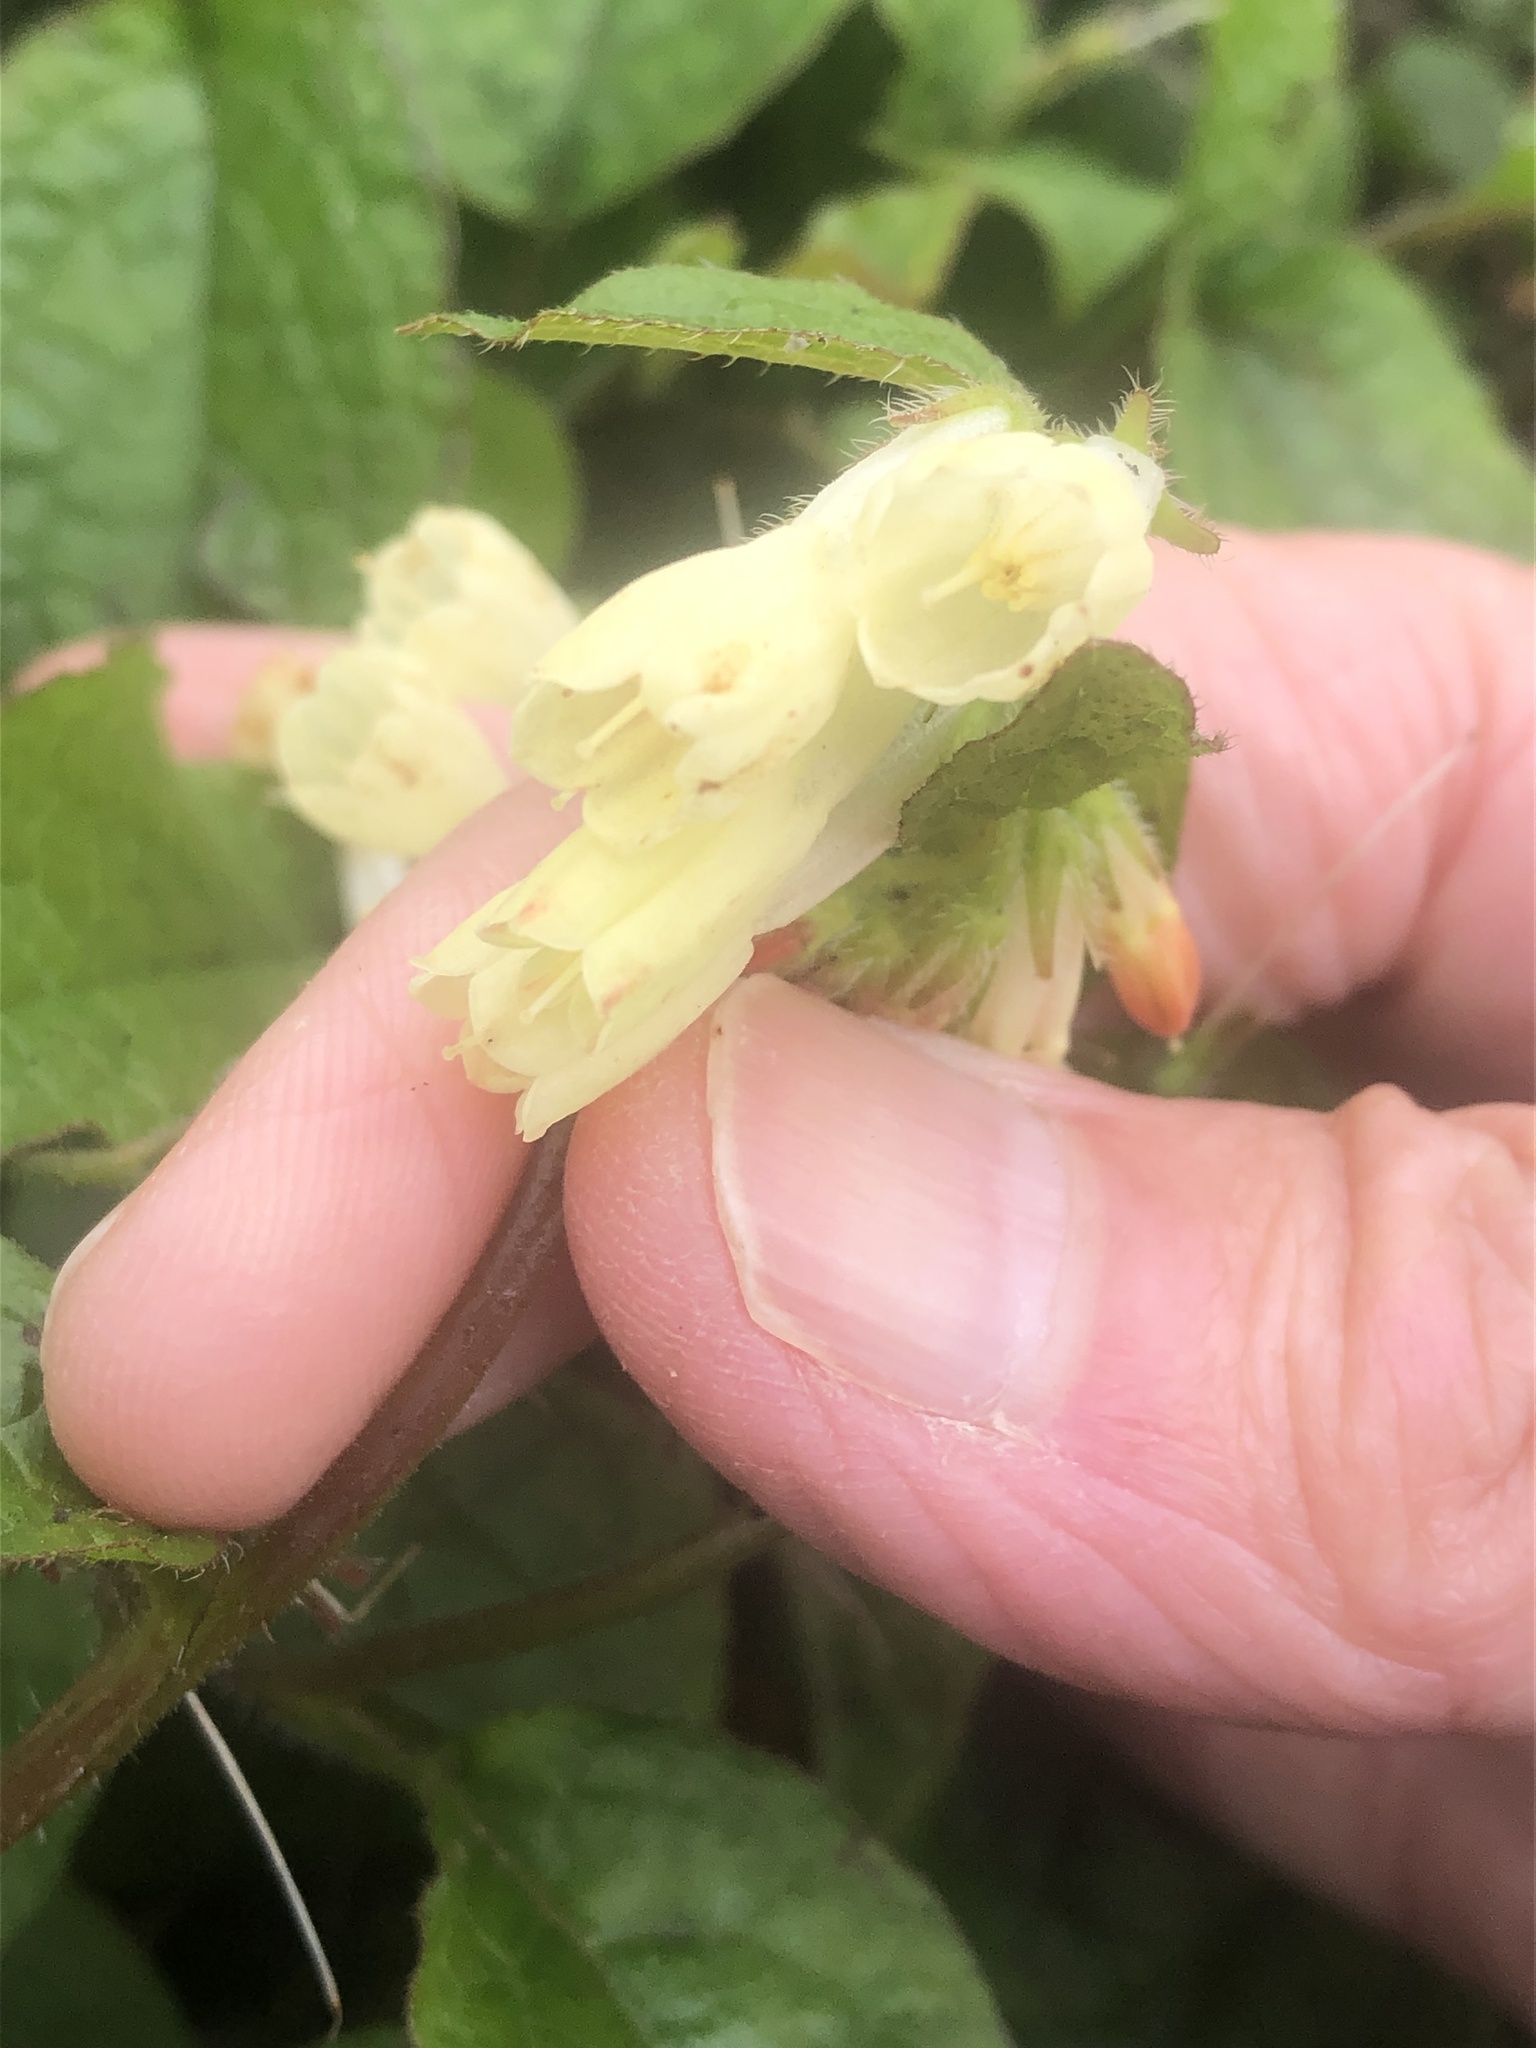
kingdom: Plantae
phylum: Tracheophyta
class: Magnoliopsida
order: Boraginales
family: Boraginaceae
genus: Symphytum
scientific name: Symphytum grandiflorum
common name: Creeping comfrey
